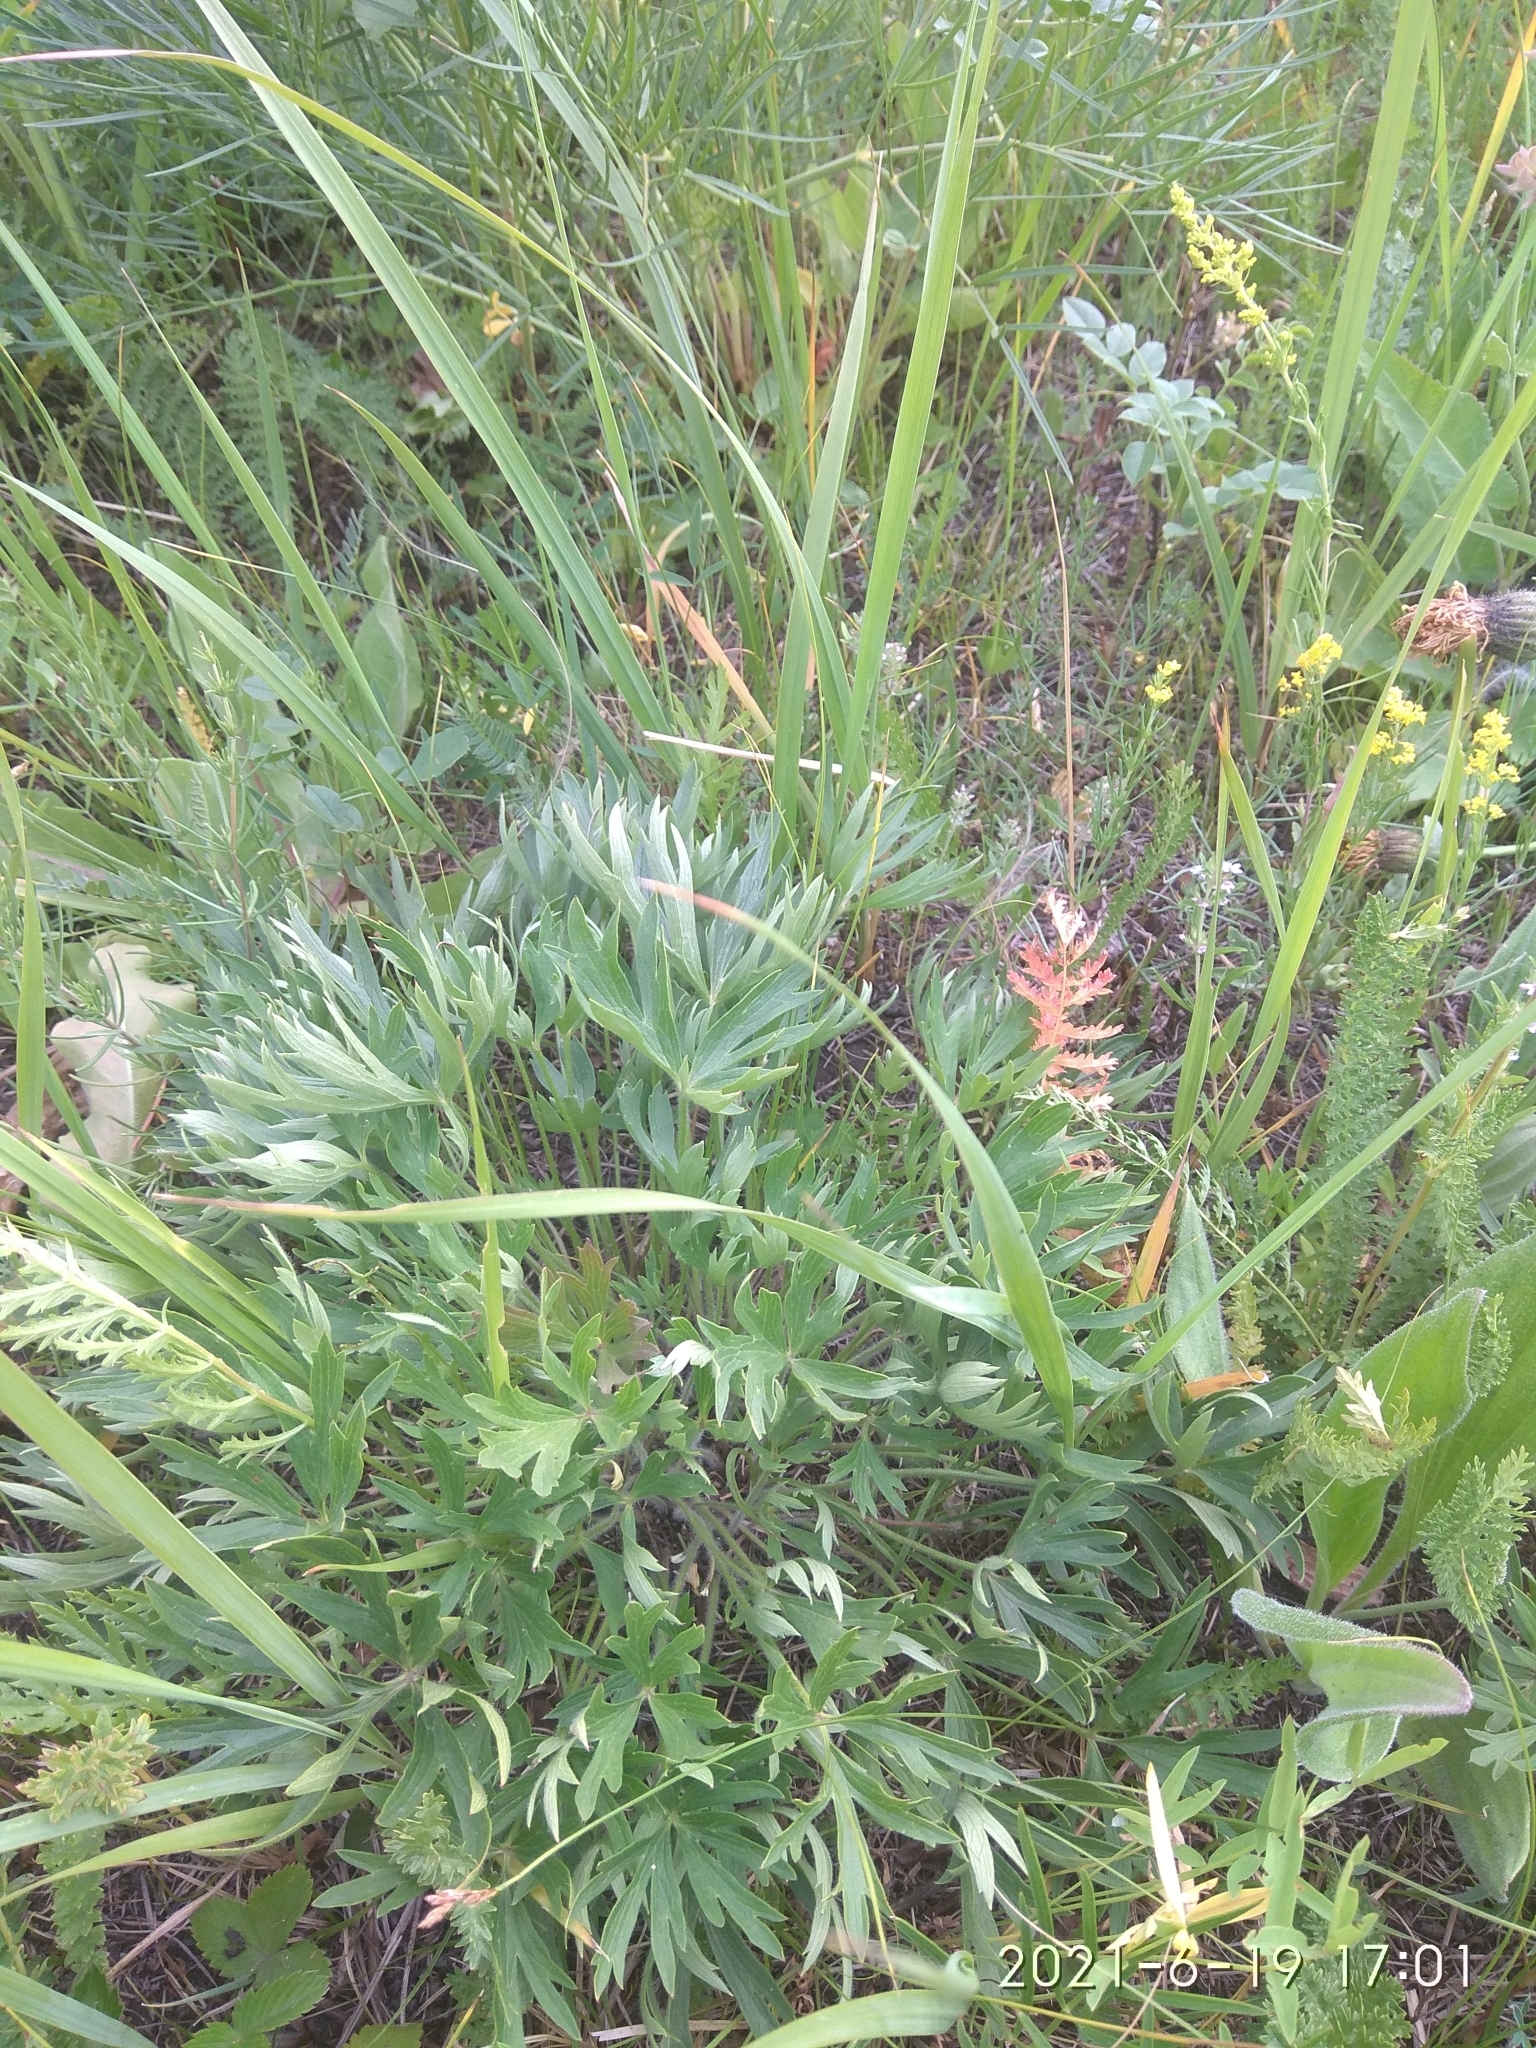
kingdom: Plantae
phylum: Tracheophyta
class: Magnoliopsida
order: Ranunculales
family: Ranunculaceae
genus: Pulsatilla
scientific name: Pulsatilla patens
